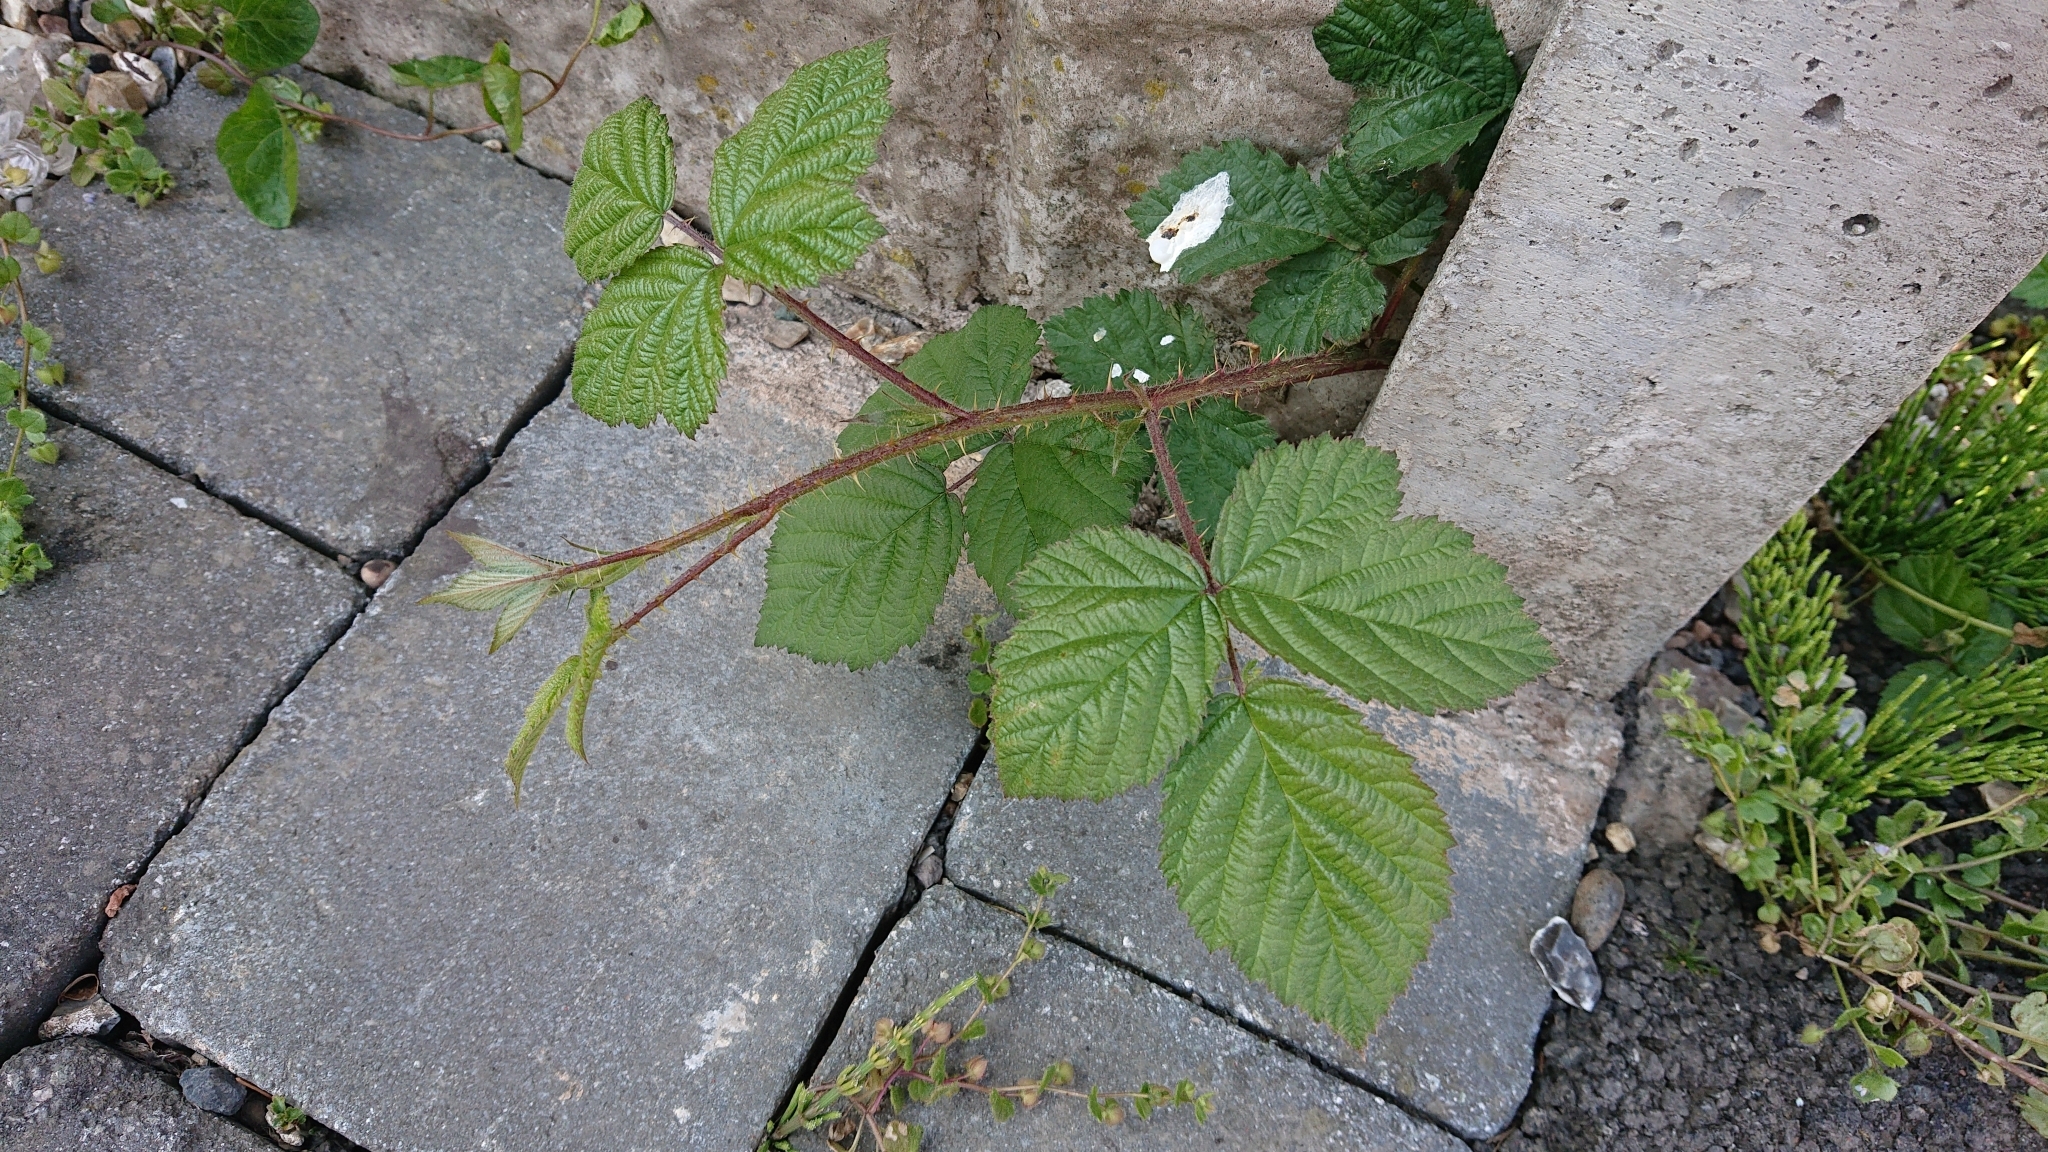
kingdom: Plantae
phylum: Tracheophyta
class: Magnoliopsida
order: Rosales
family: Rosaceae
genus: Rubus
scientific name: Rubus
